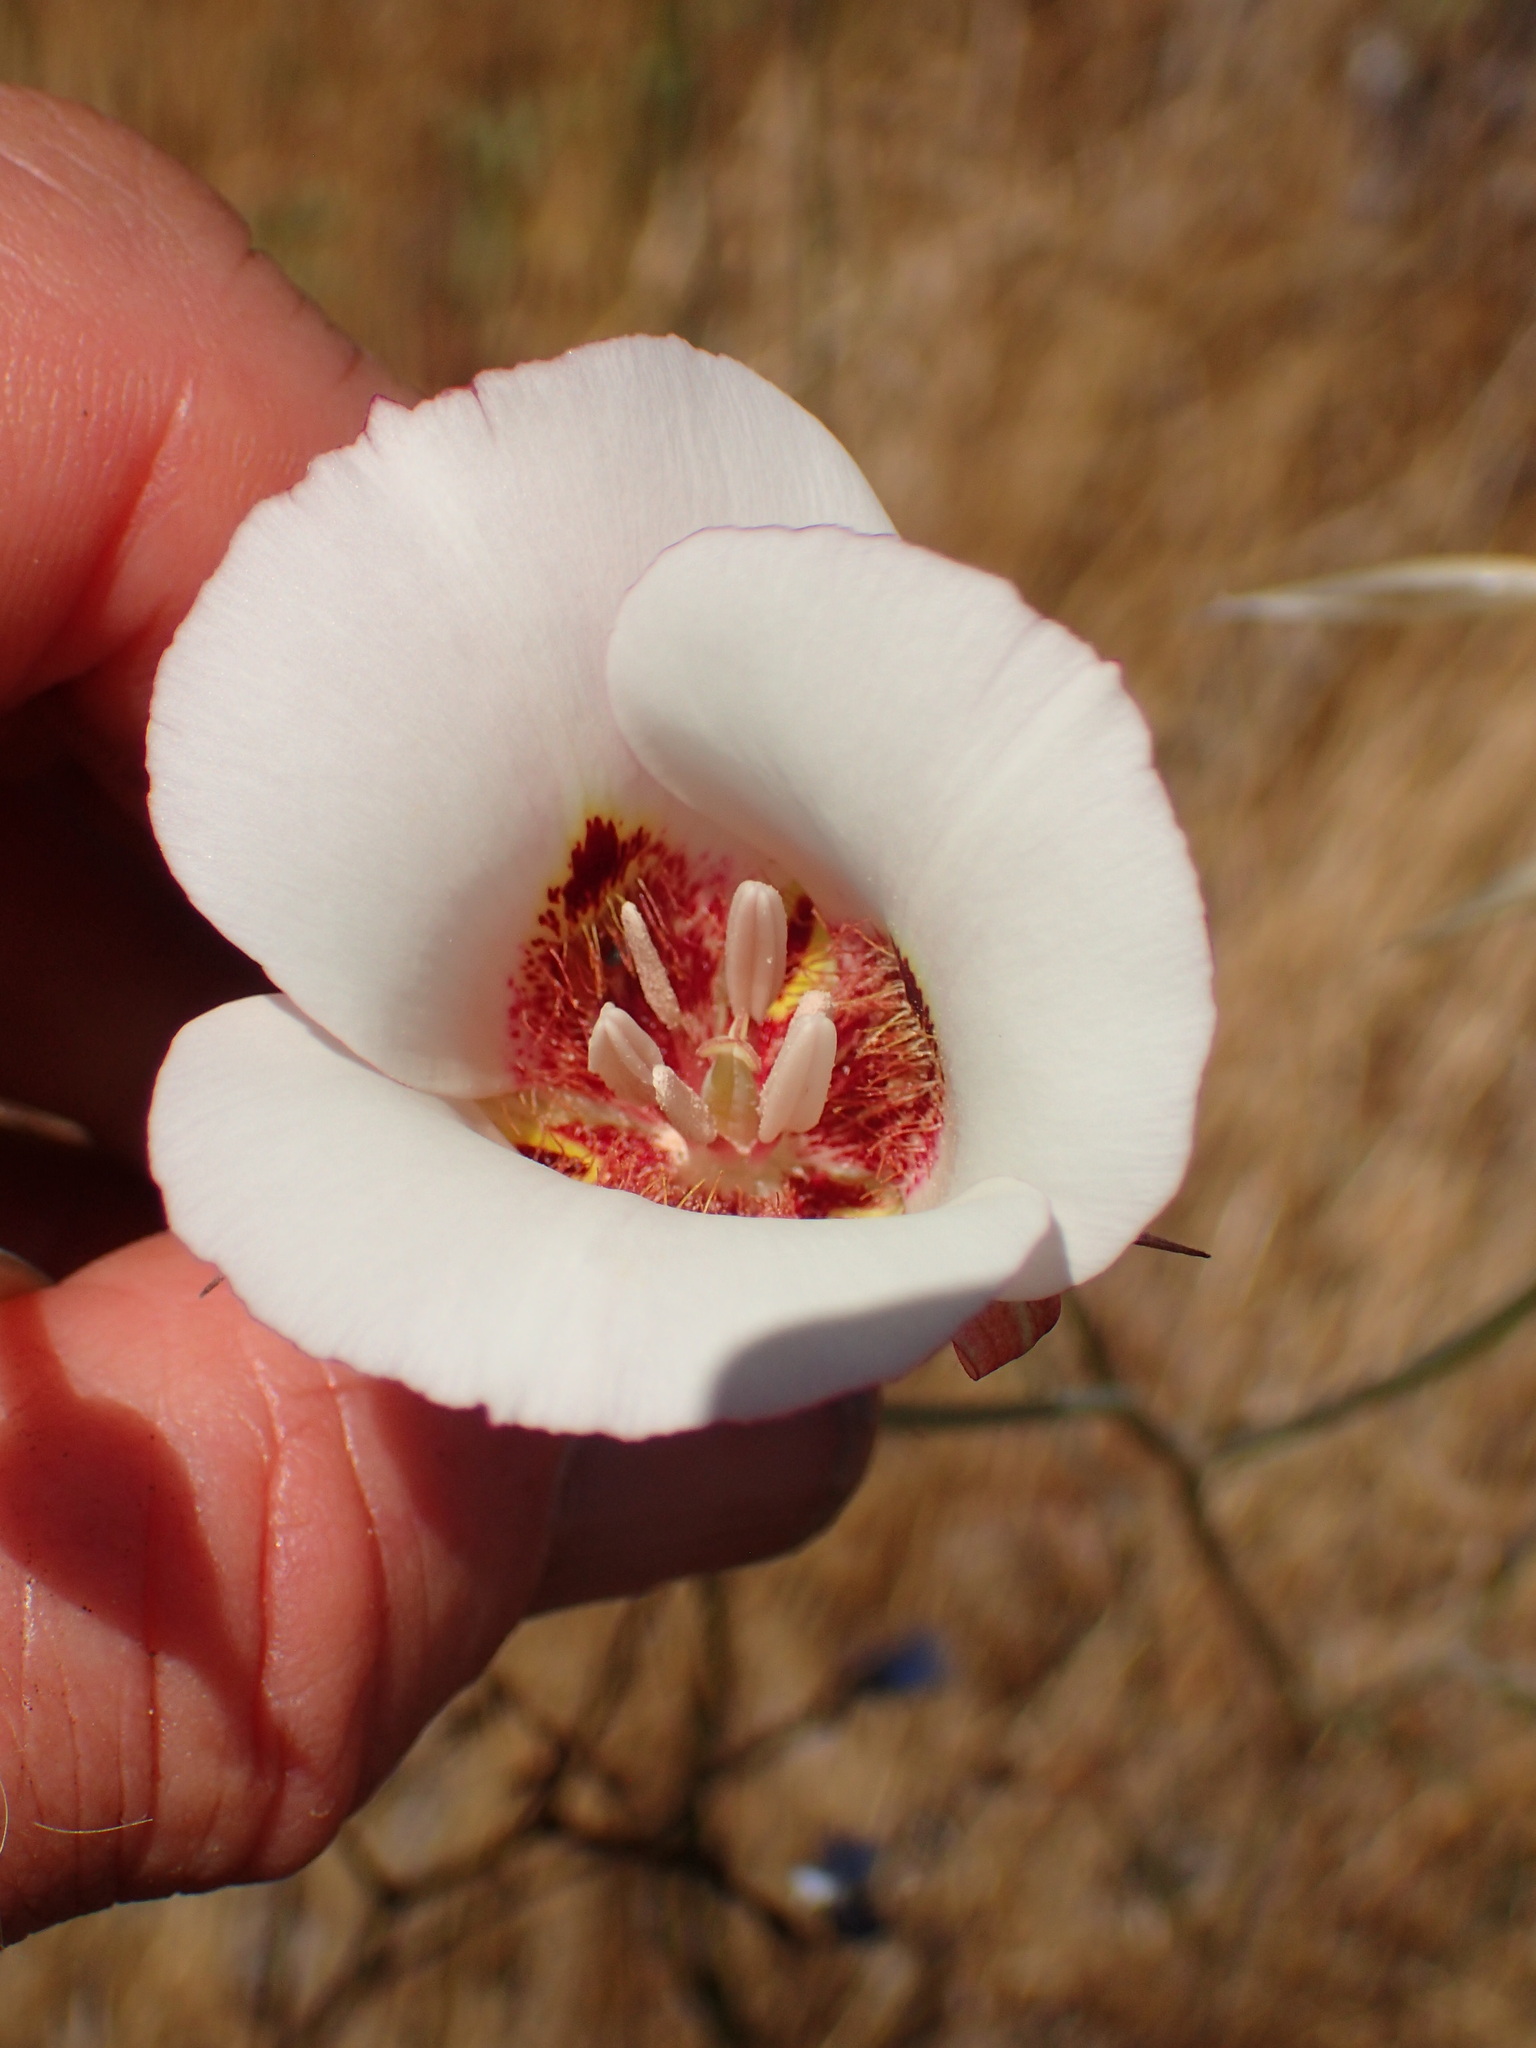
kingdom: Plantae
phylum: Tracheophyta
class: Liliopsida
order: Liliales
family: Liliaceae
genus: Calochortus
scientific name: Calochortus venustus
